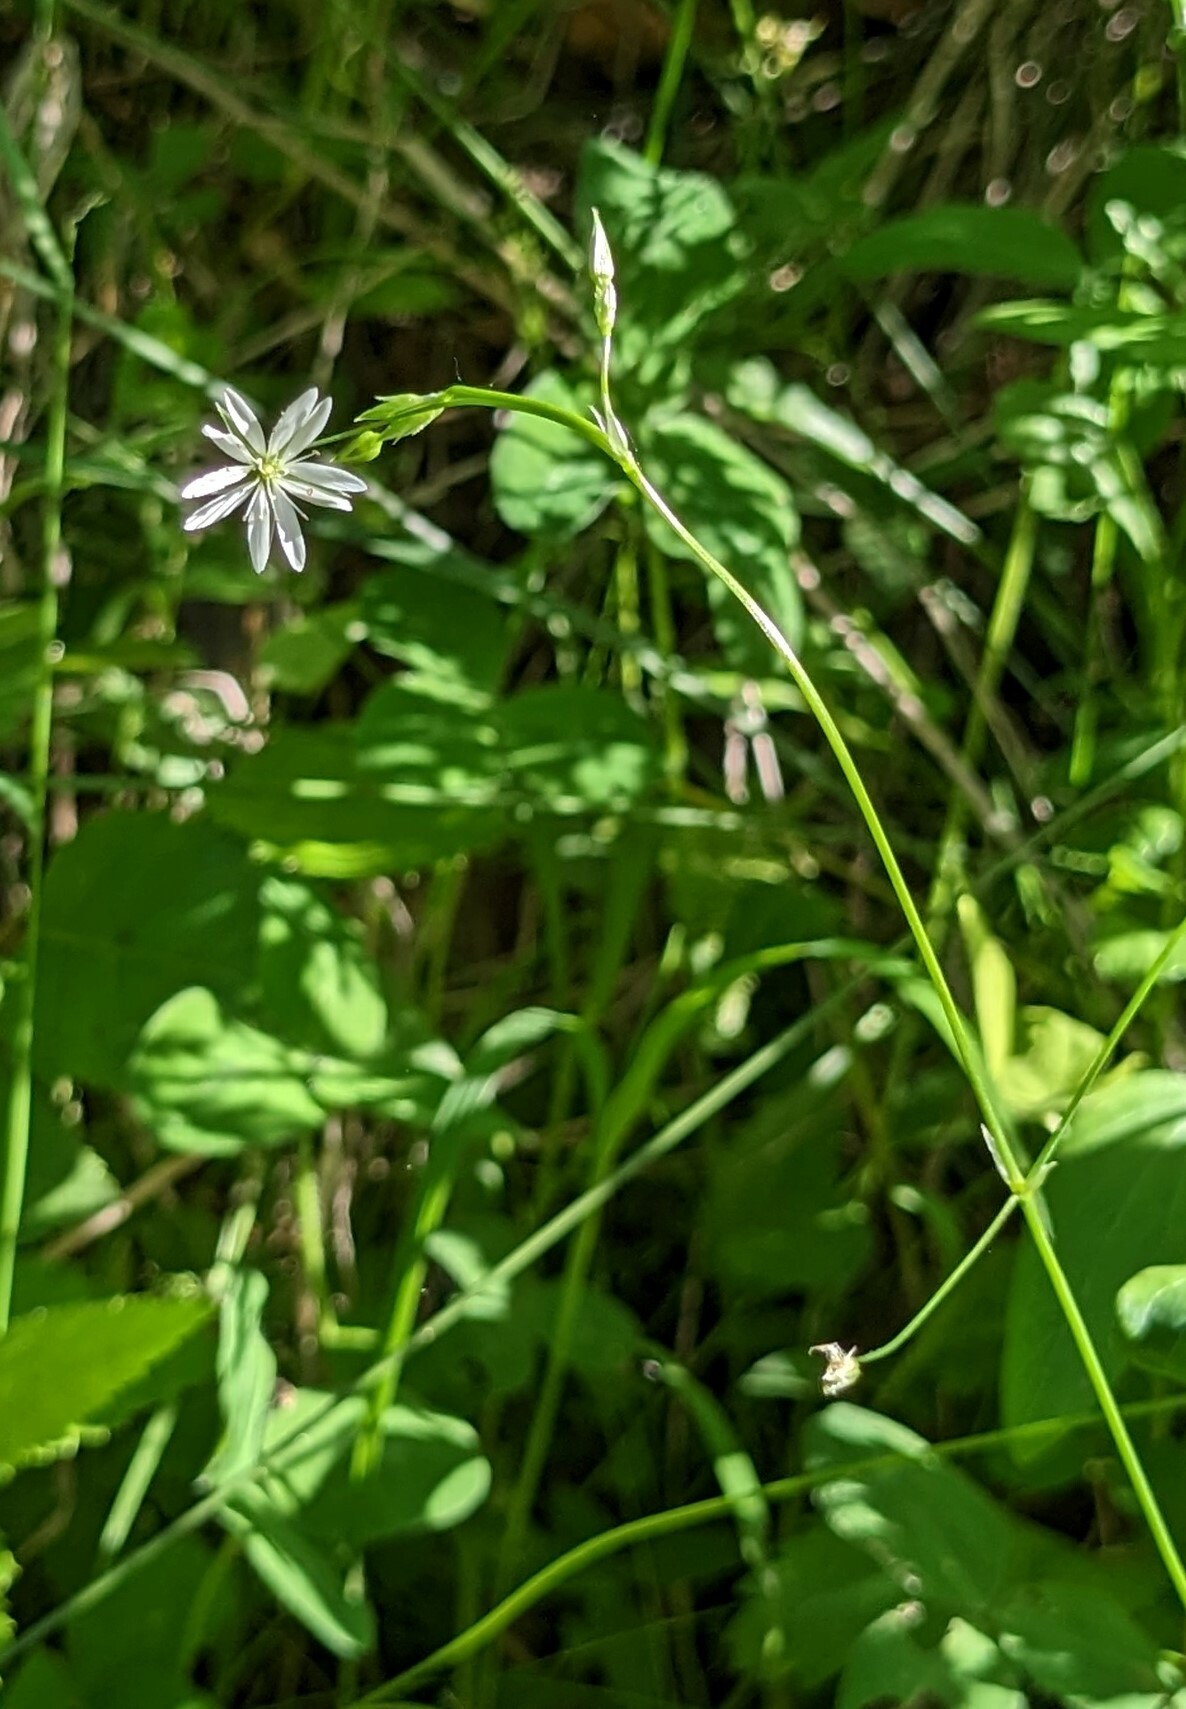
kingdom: Plantae
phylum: Tracheophyta
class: Magnoliopsida
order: Caryophyllales
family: Caryophyllaceae
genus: Stellaria
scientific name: Stellaria graminea
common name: Grass-like starwort
